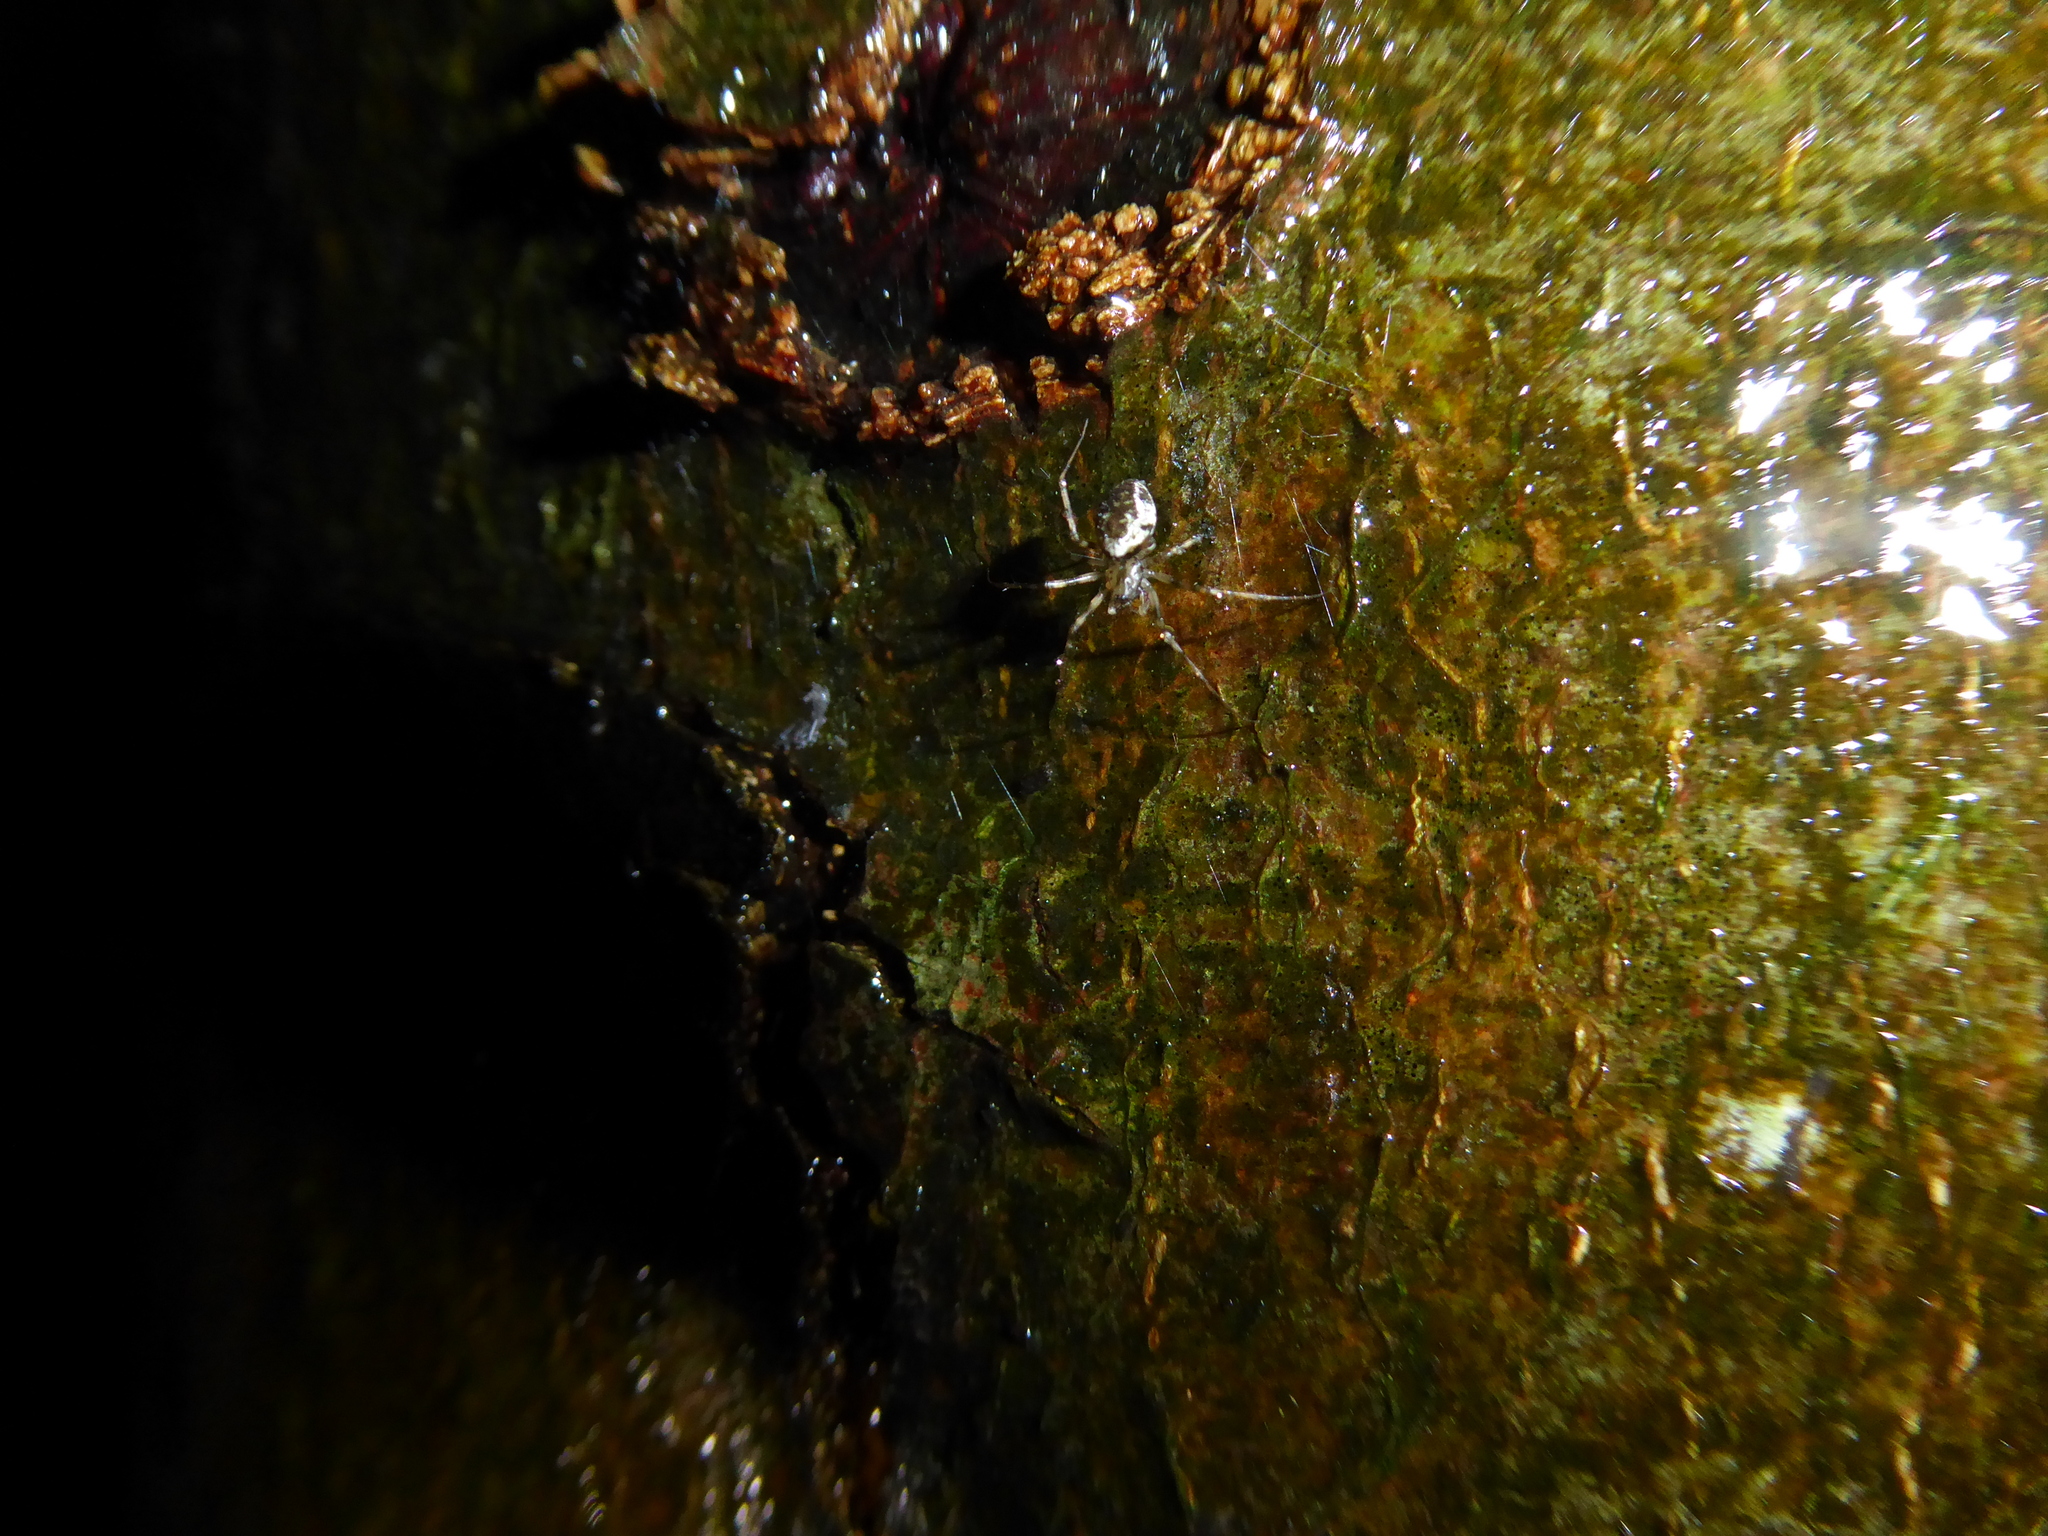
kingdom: Animalia
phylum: Arthropoda
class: Arachnida
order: Araneae
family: Linyphiidae
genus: Drapetisca
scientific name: Drapetisca socialis
